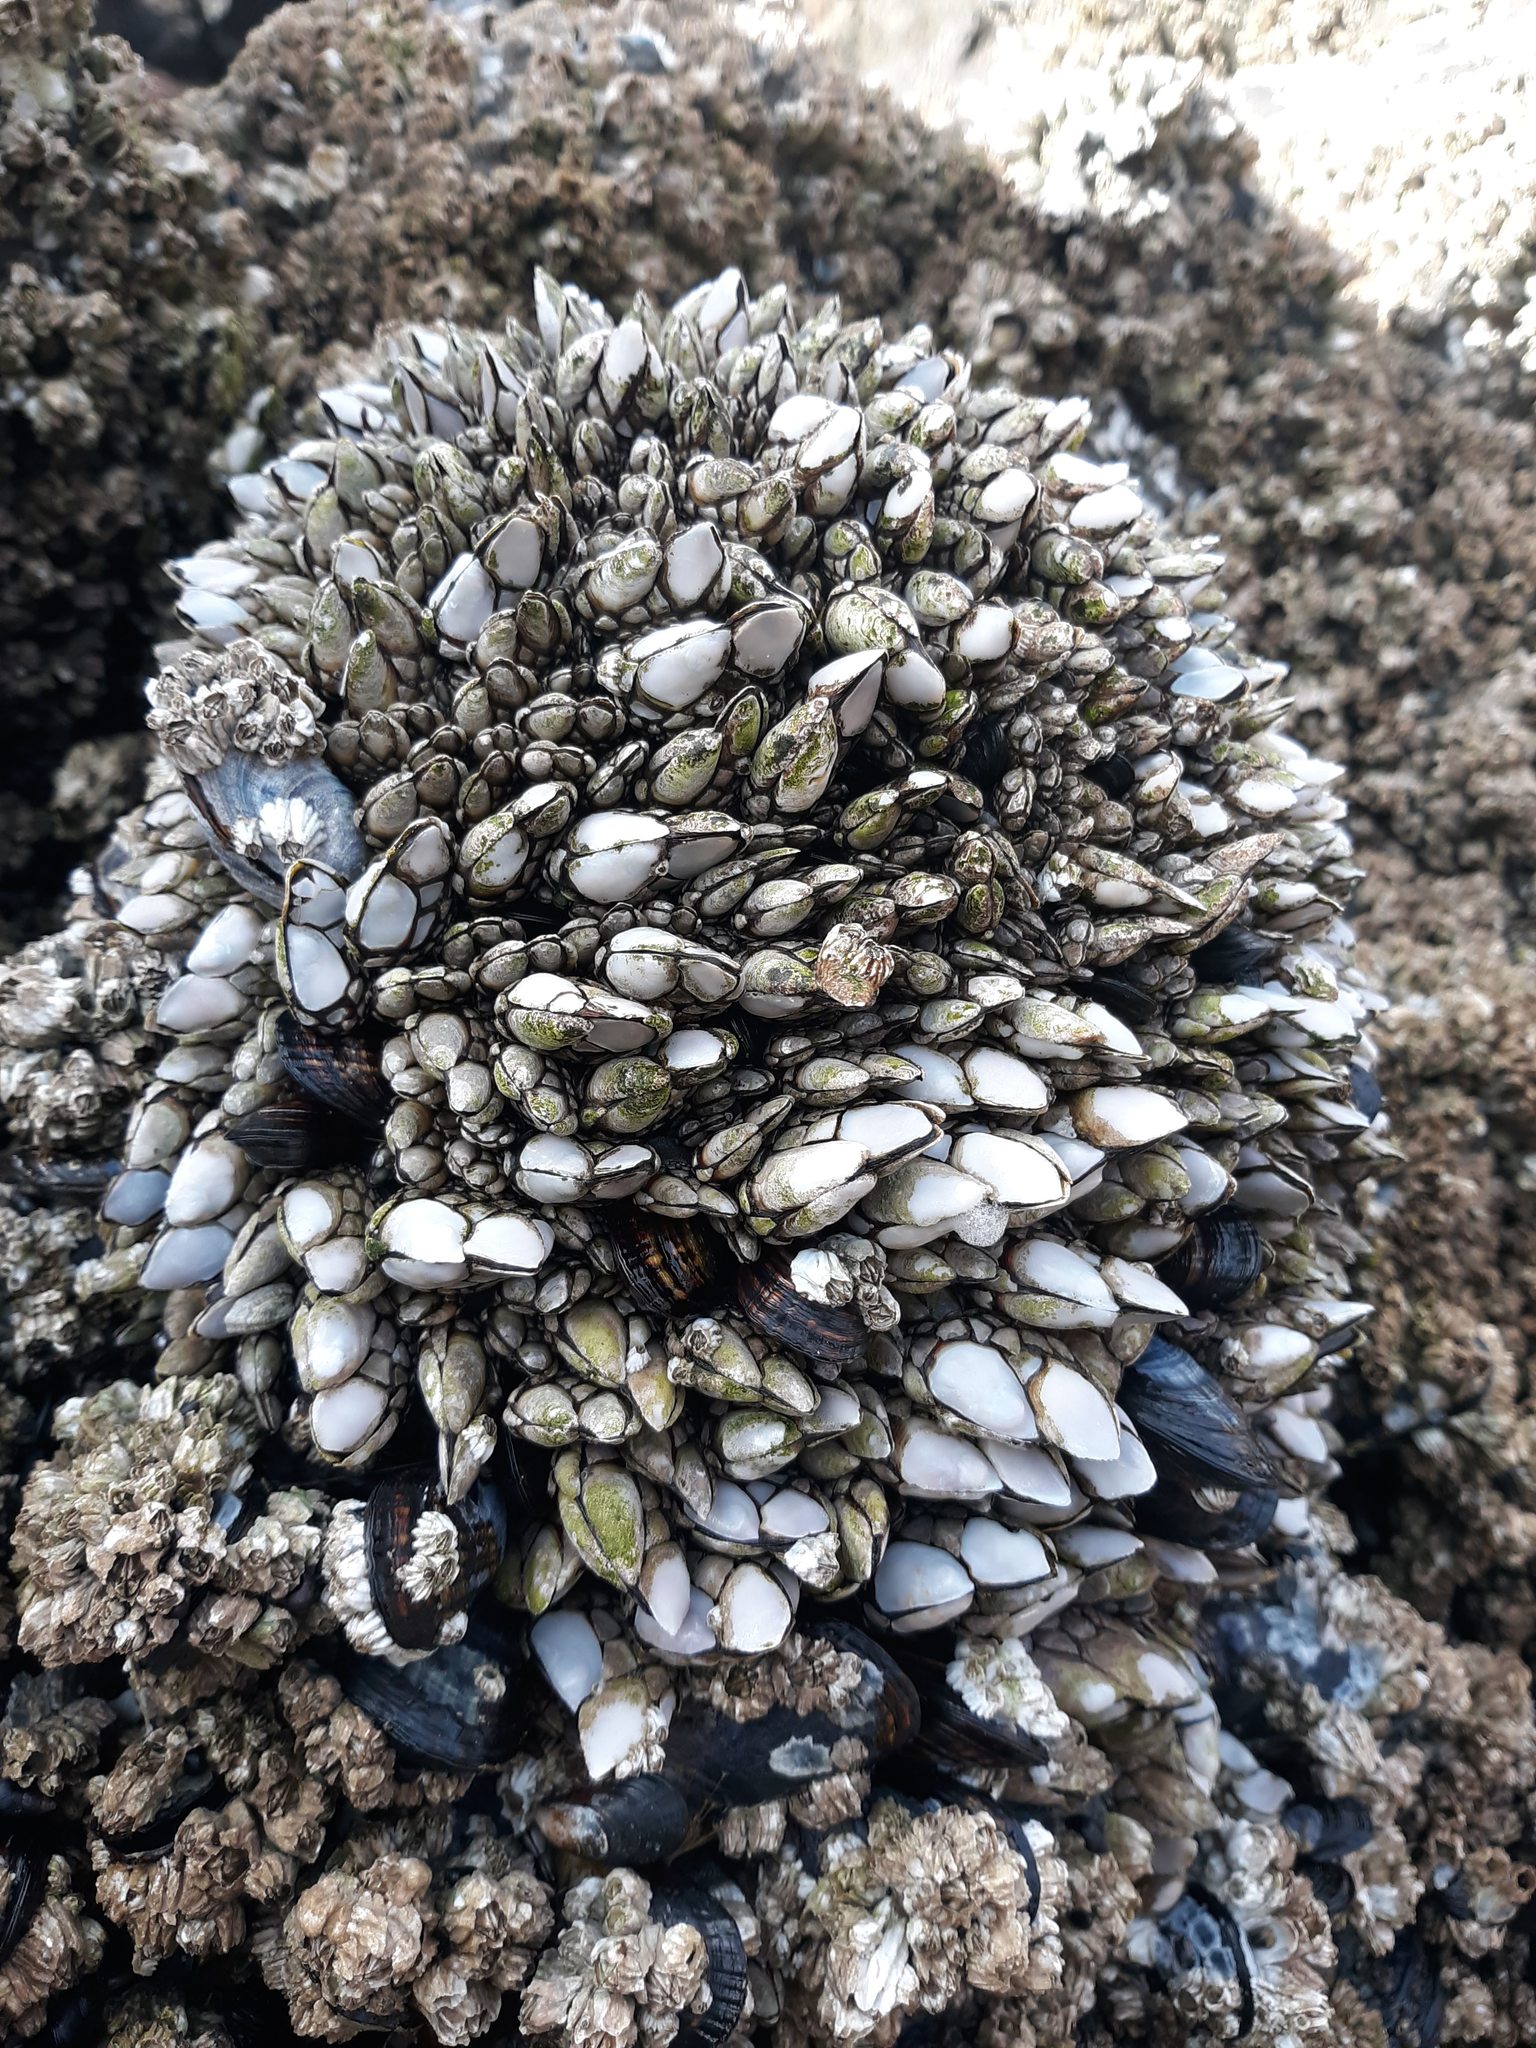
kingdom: Animalia
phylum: Arthropoda
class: Maxillopoda
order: Pedunculata
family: Pollicipedidae
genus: Pollicipes
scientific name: Pollicipes polymerus
